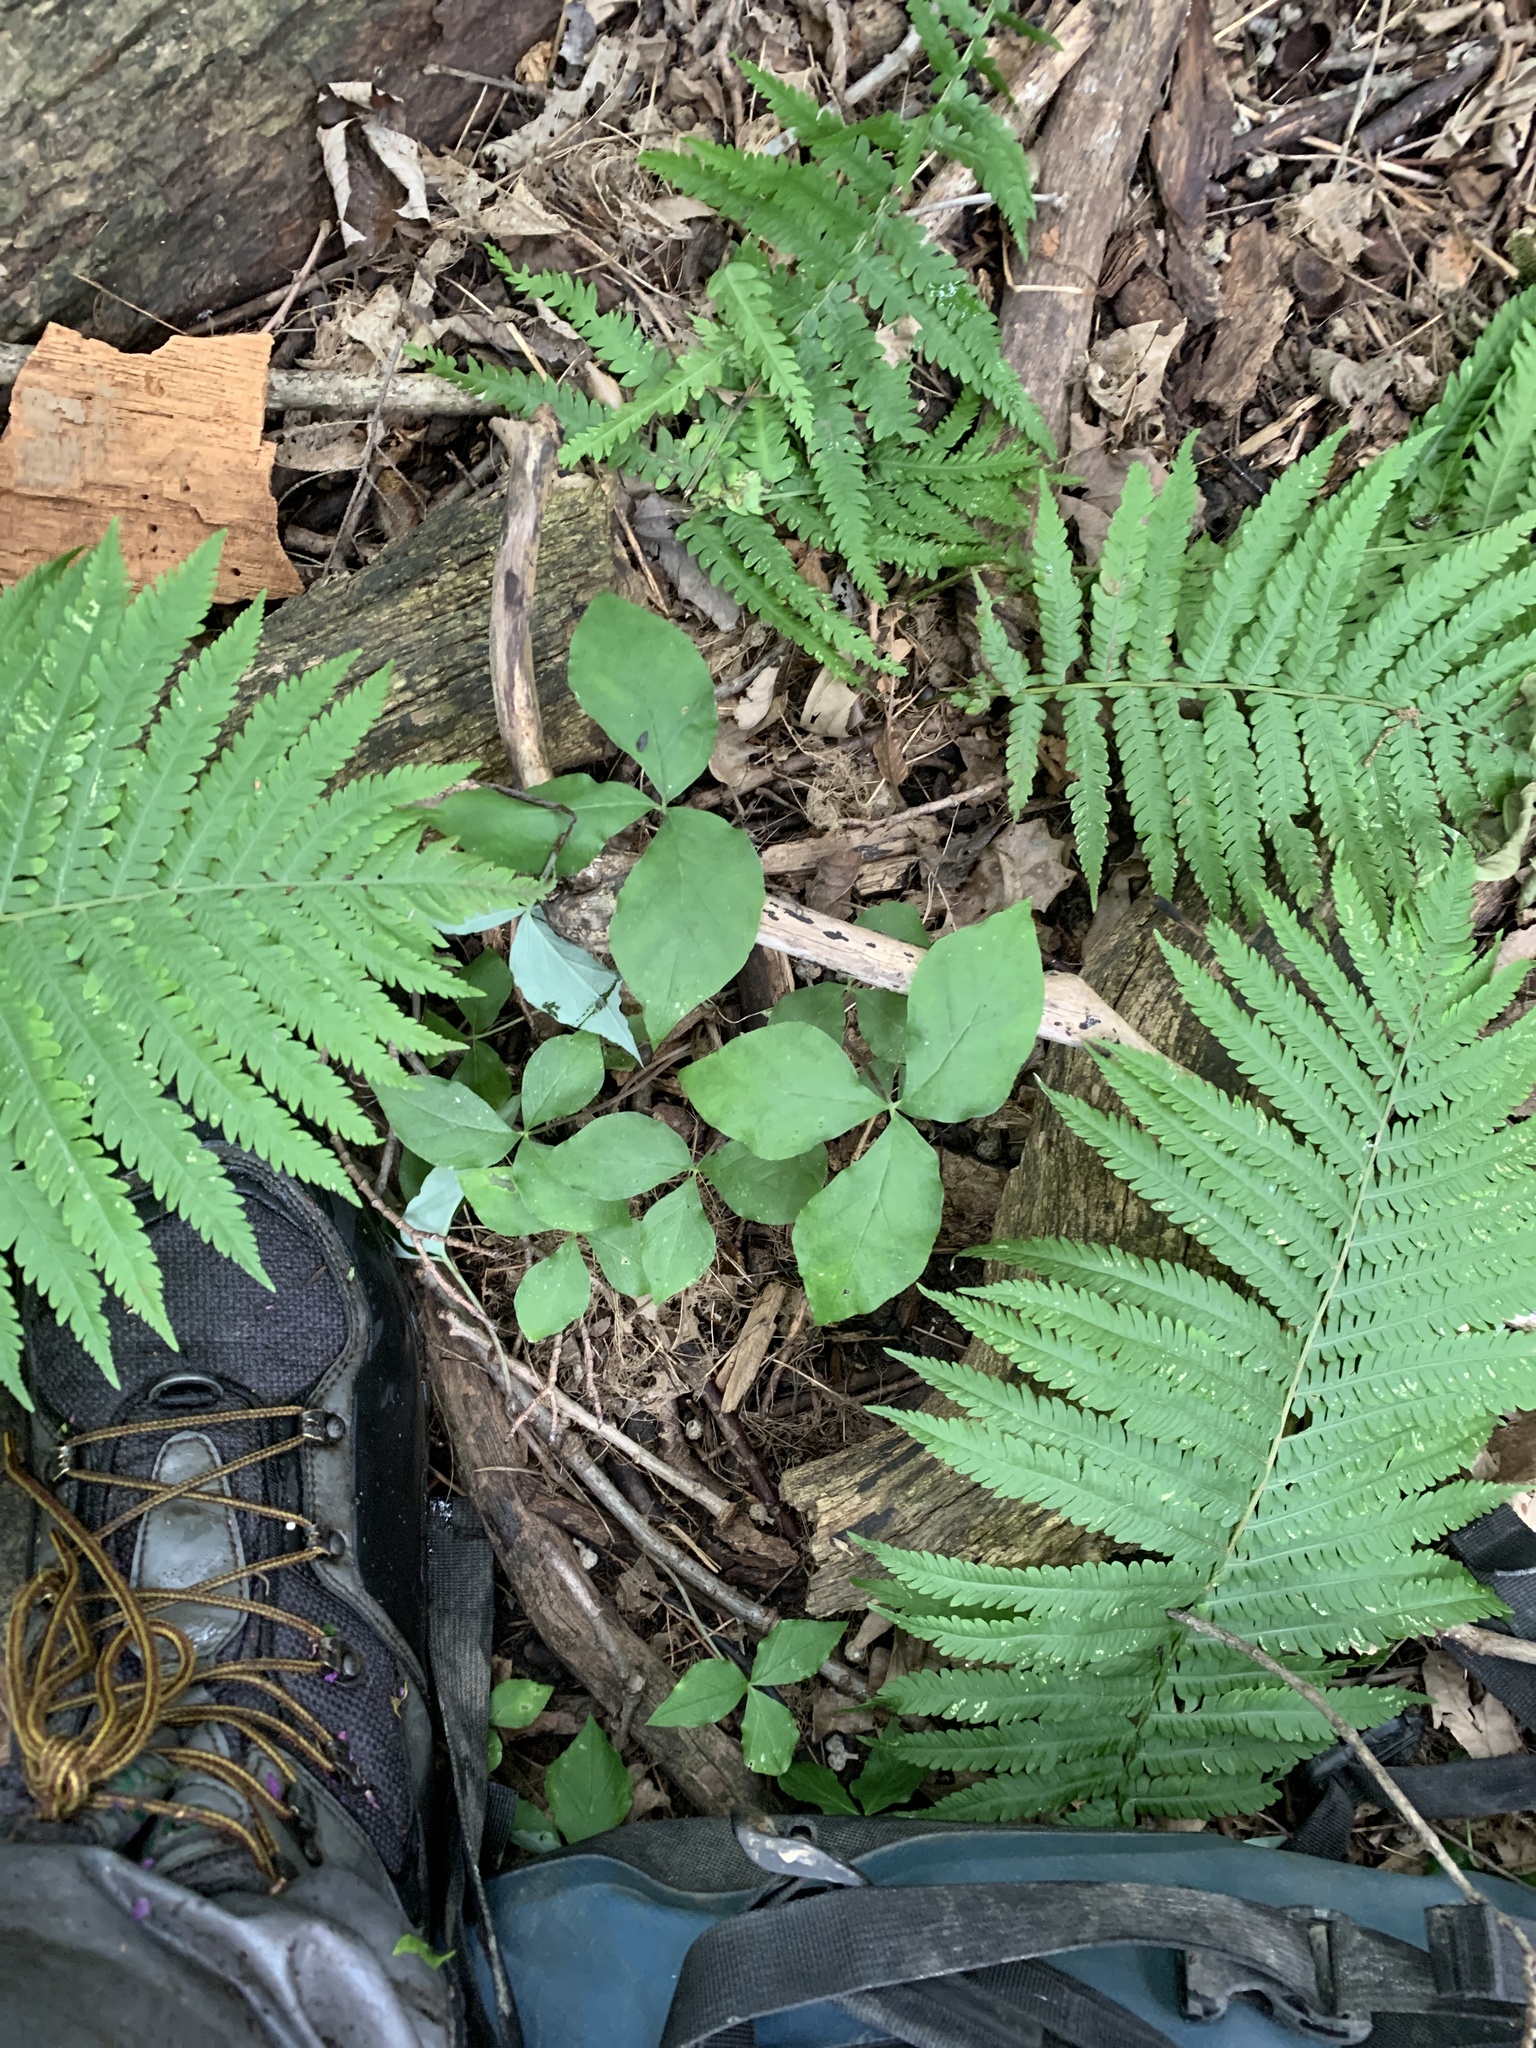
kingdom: Plantae
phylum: Tracheophyta
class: Liliopsida
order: Alismatales
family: Araceae
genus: Arisaema
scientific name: Arisaema triphyllum
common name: Jack-in-the-pulpit
